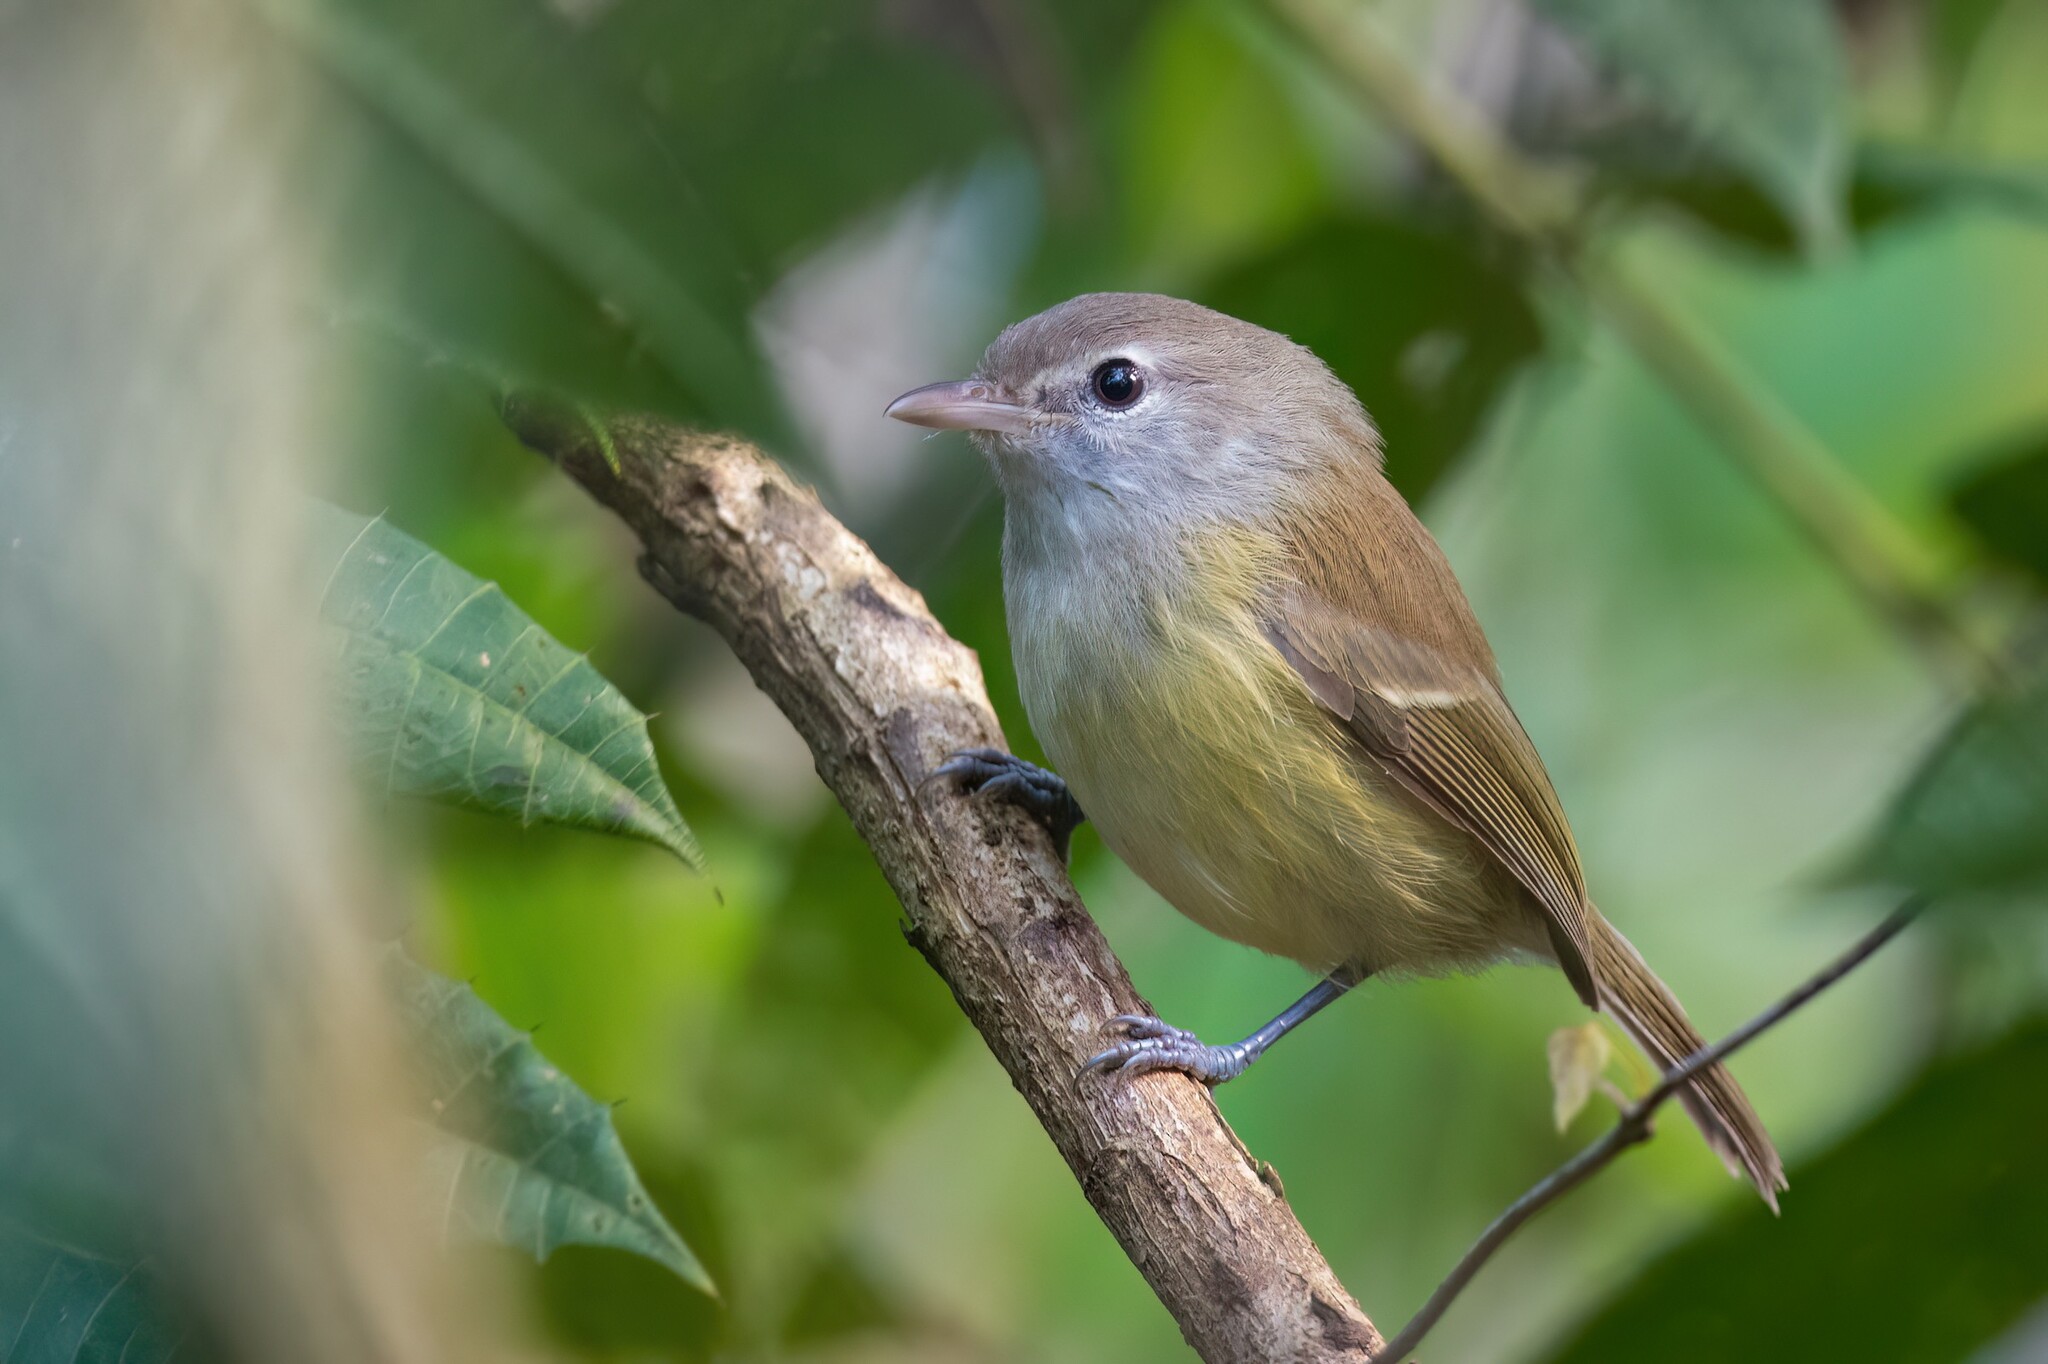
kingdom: Animalia
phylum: Chordata
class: Aves
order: Passeriformes
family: Vireonidae
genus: Vireo
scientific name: Vireo latimeri
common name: Puerto rican vireo
